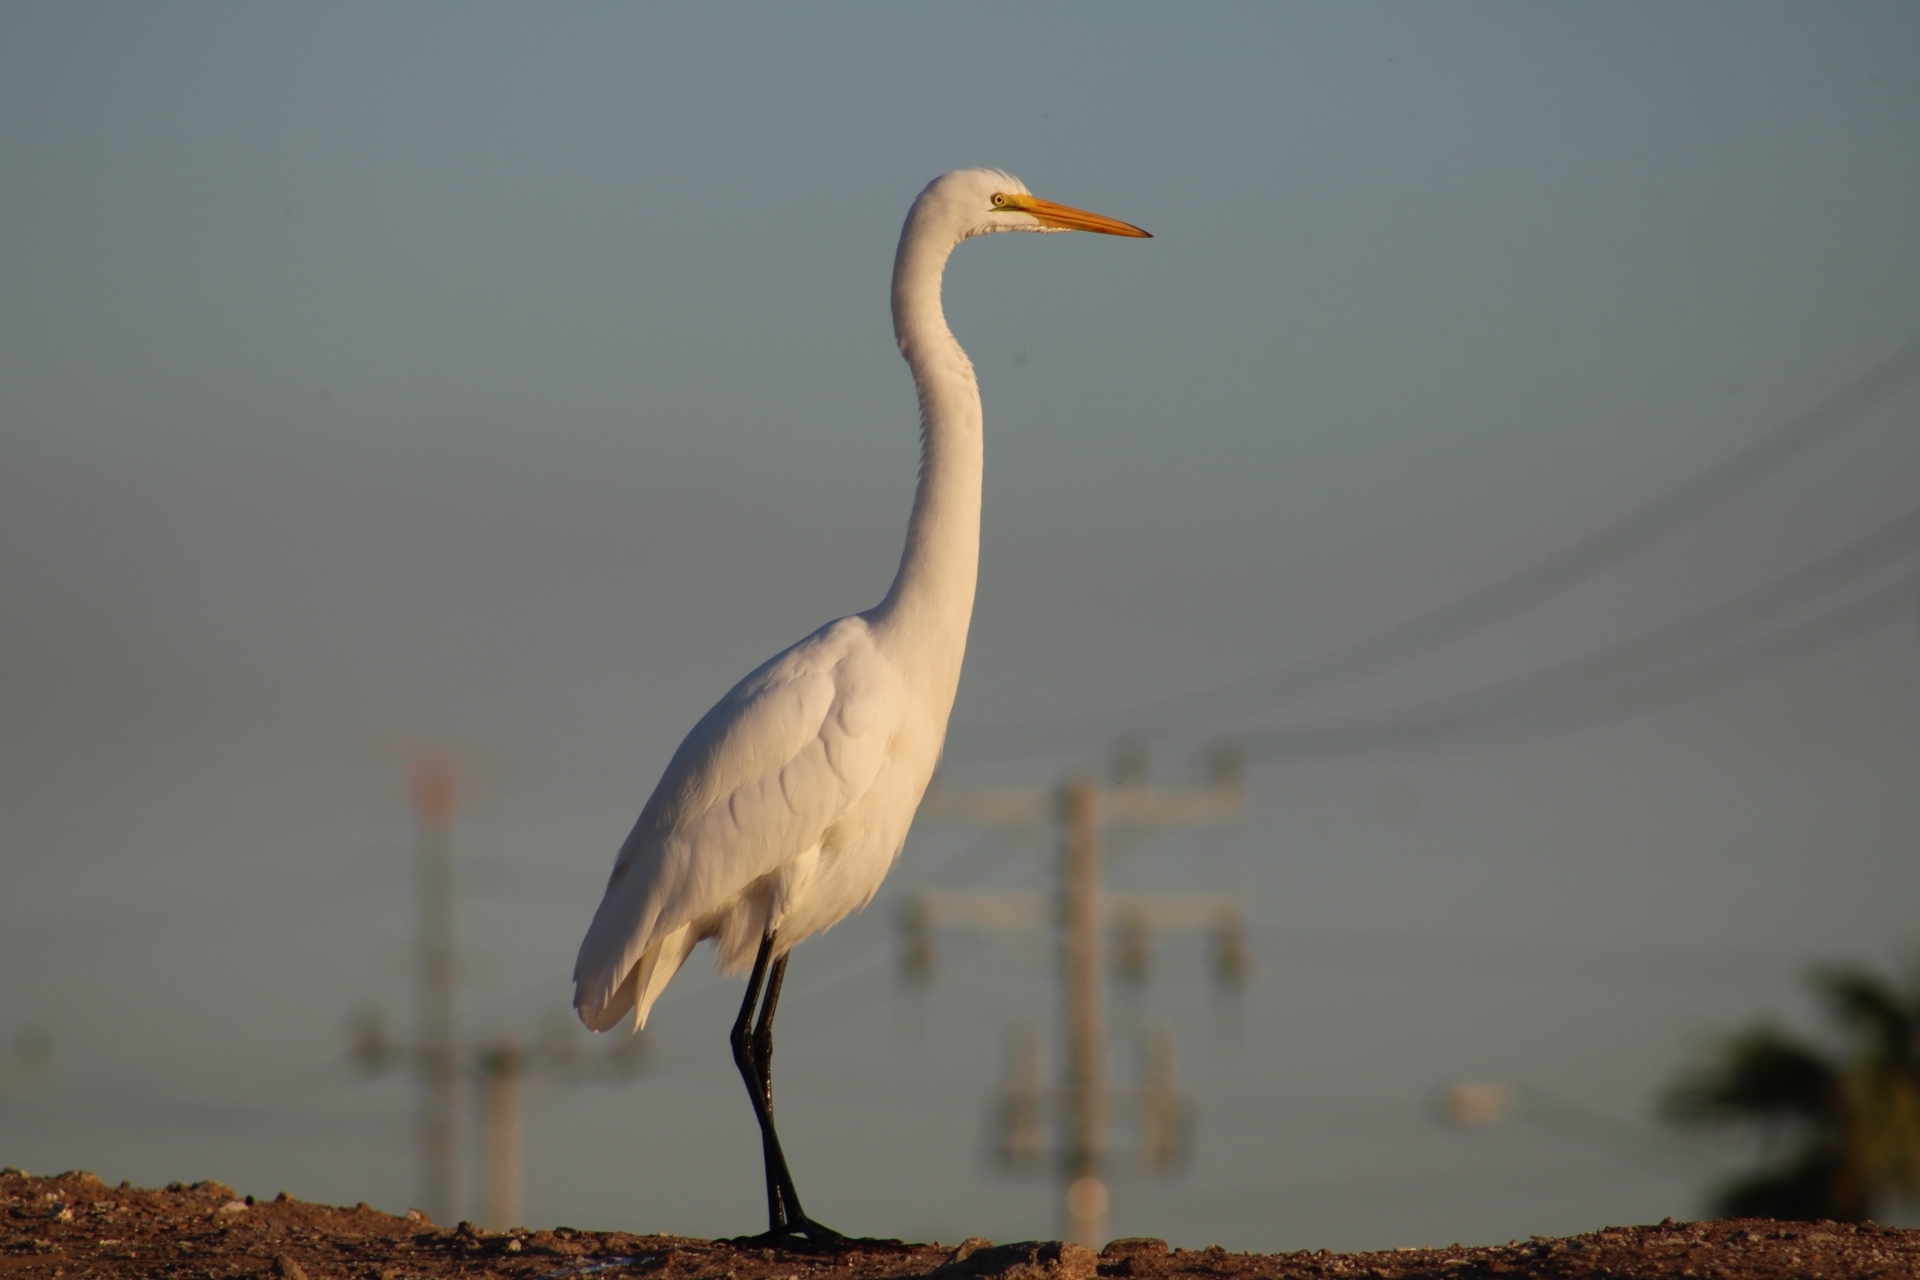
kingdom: Animalia
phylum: Chordata
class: Aves
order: Pelecaniformes
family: Ardeidae
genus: Ardea
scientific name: Ardea alba
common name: Great egret
